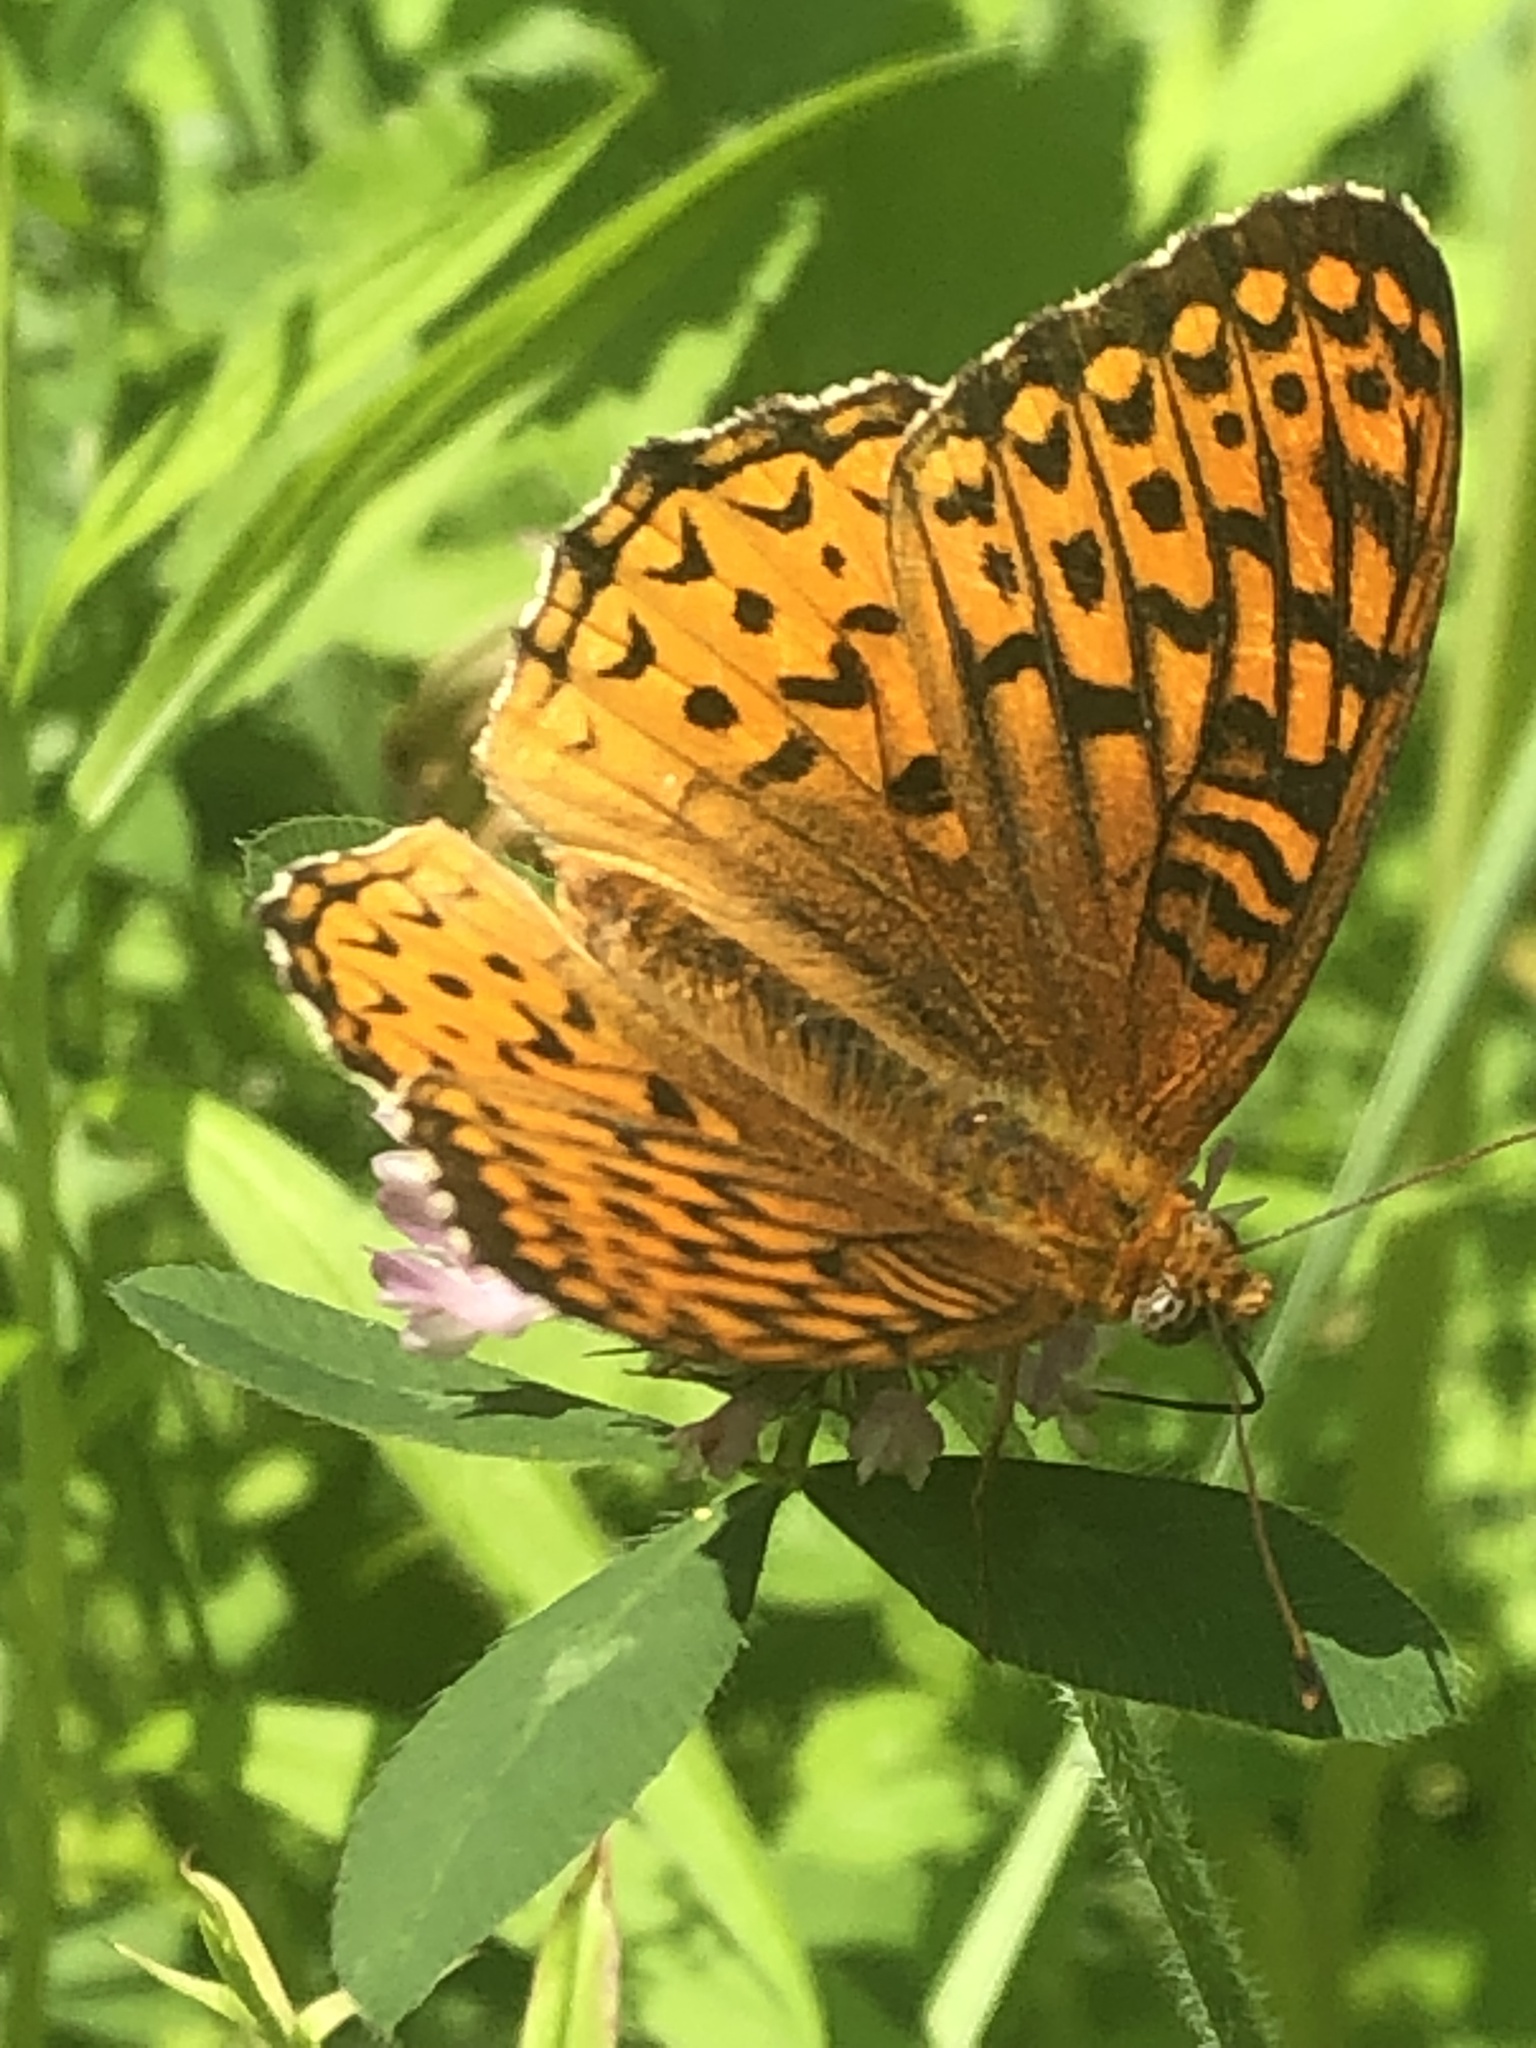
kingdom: Animalia
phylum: Arthropoda
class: Insecta
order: Lepidoptera
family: Nymphalidae
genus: Speyeria
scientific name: Speyeria atlantis
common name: Atlantis fritillary
